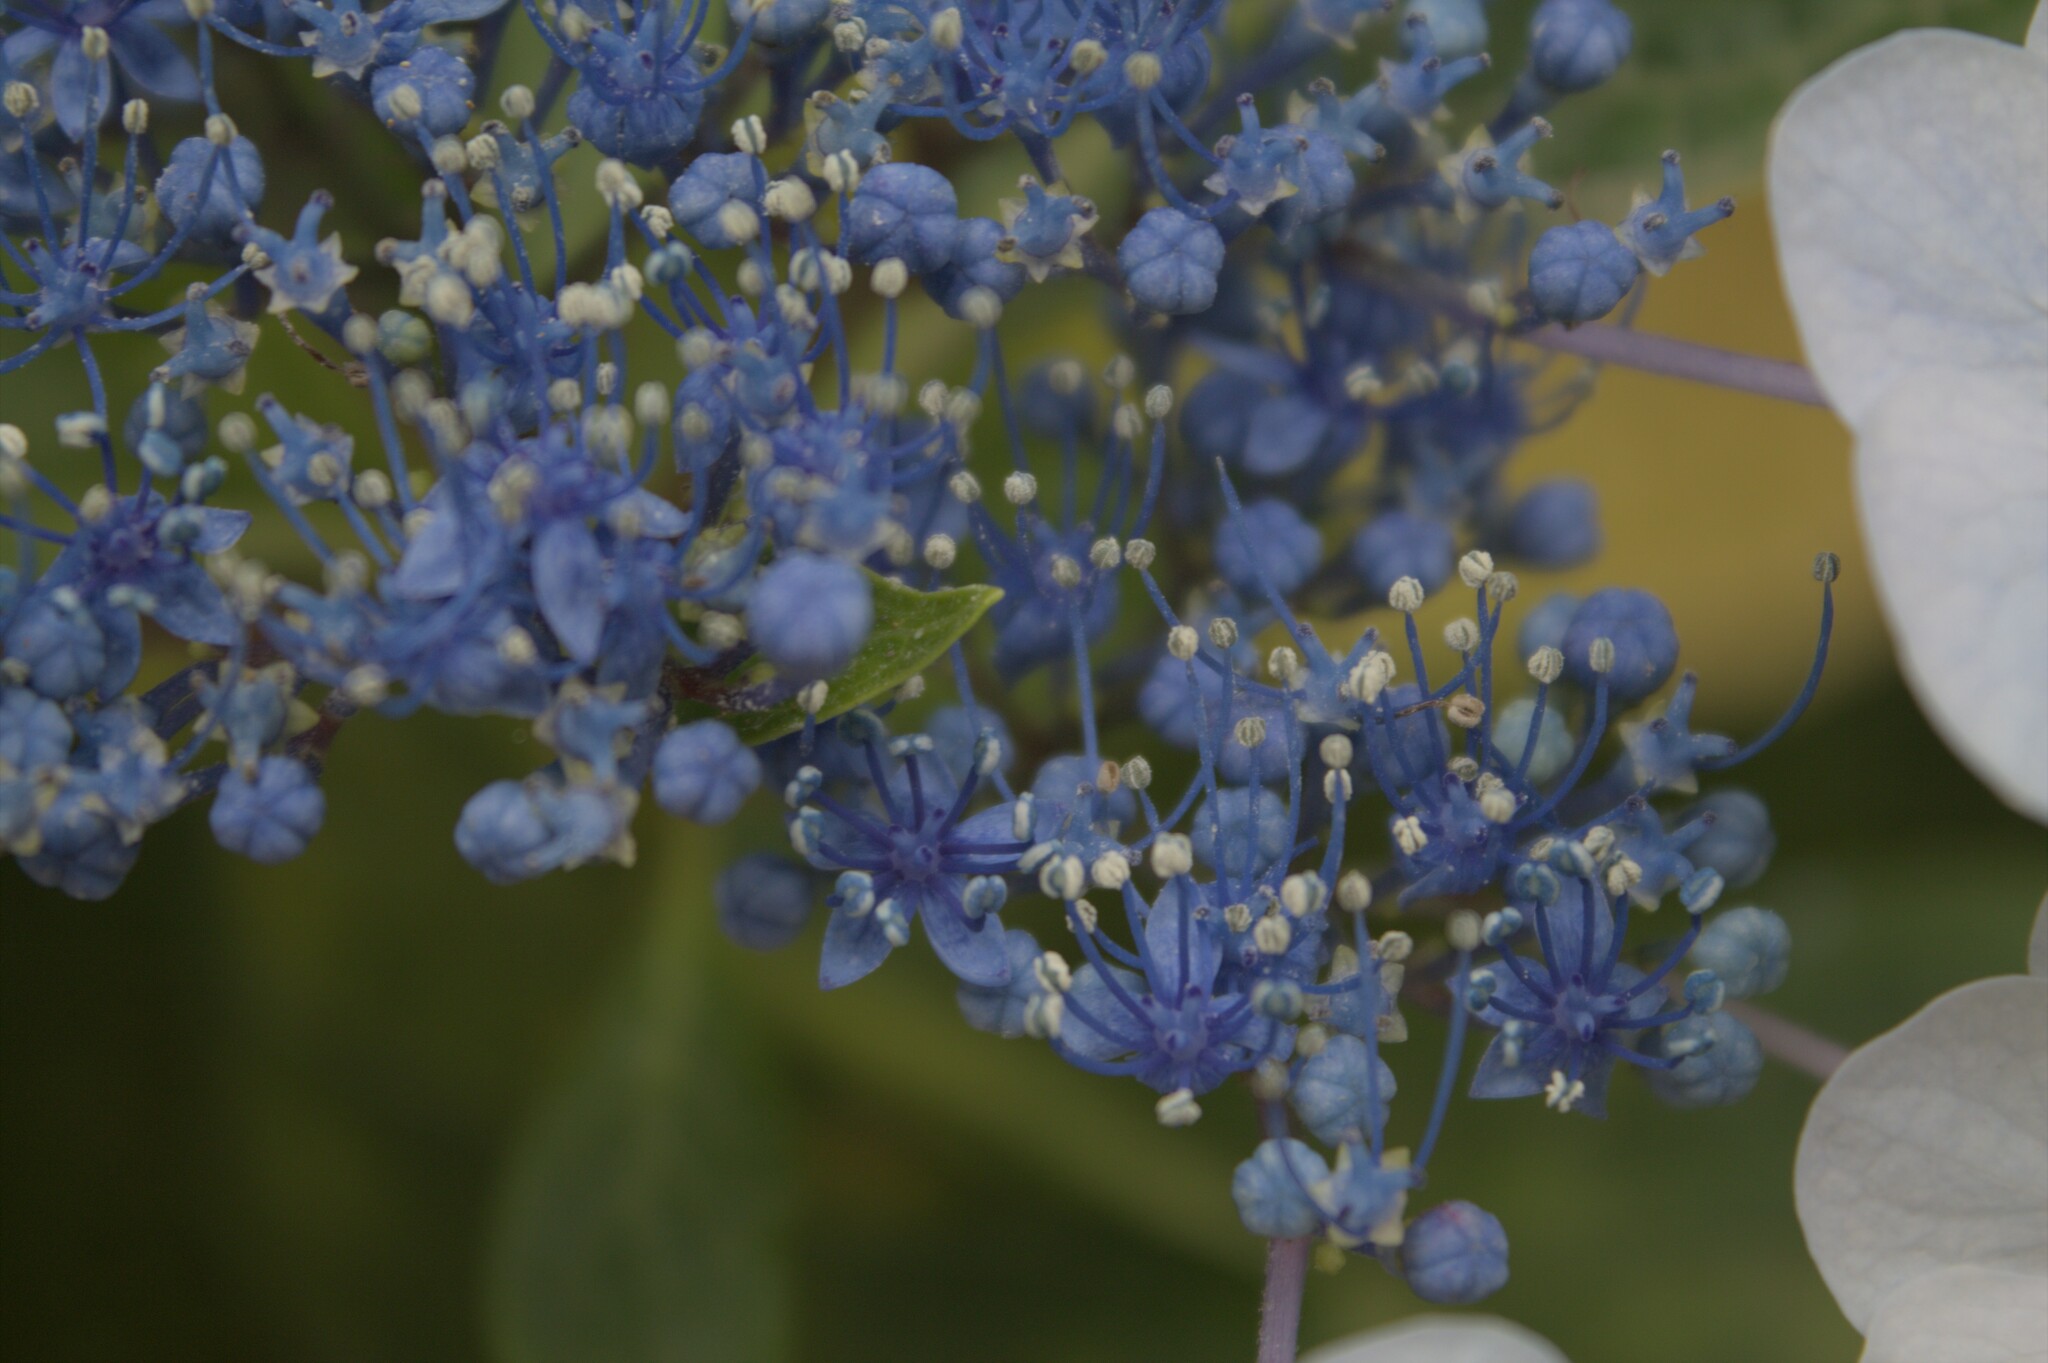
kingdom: Plantae
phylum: Tracheophyta
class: Magnoliopsida
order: Cornales
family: Hydrangeaceae
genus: Hydrangea
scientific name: Hydrangea macrophylla
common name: Hydrangea
